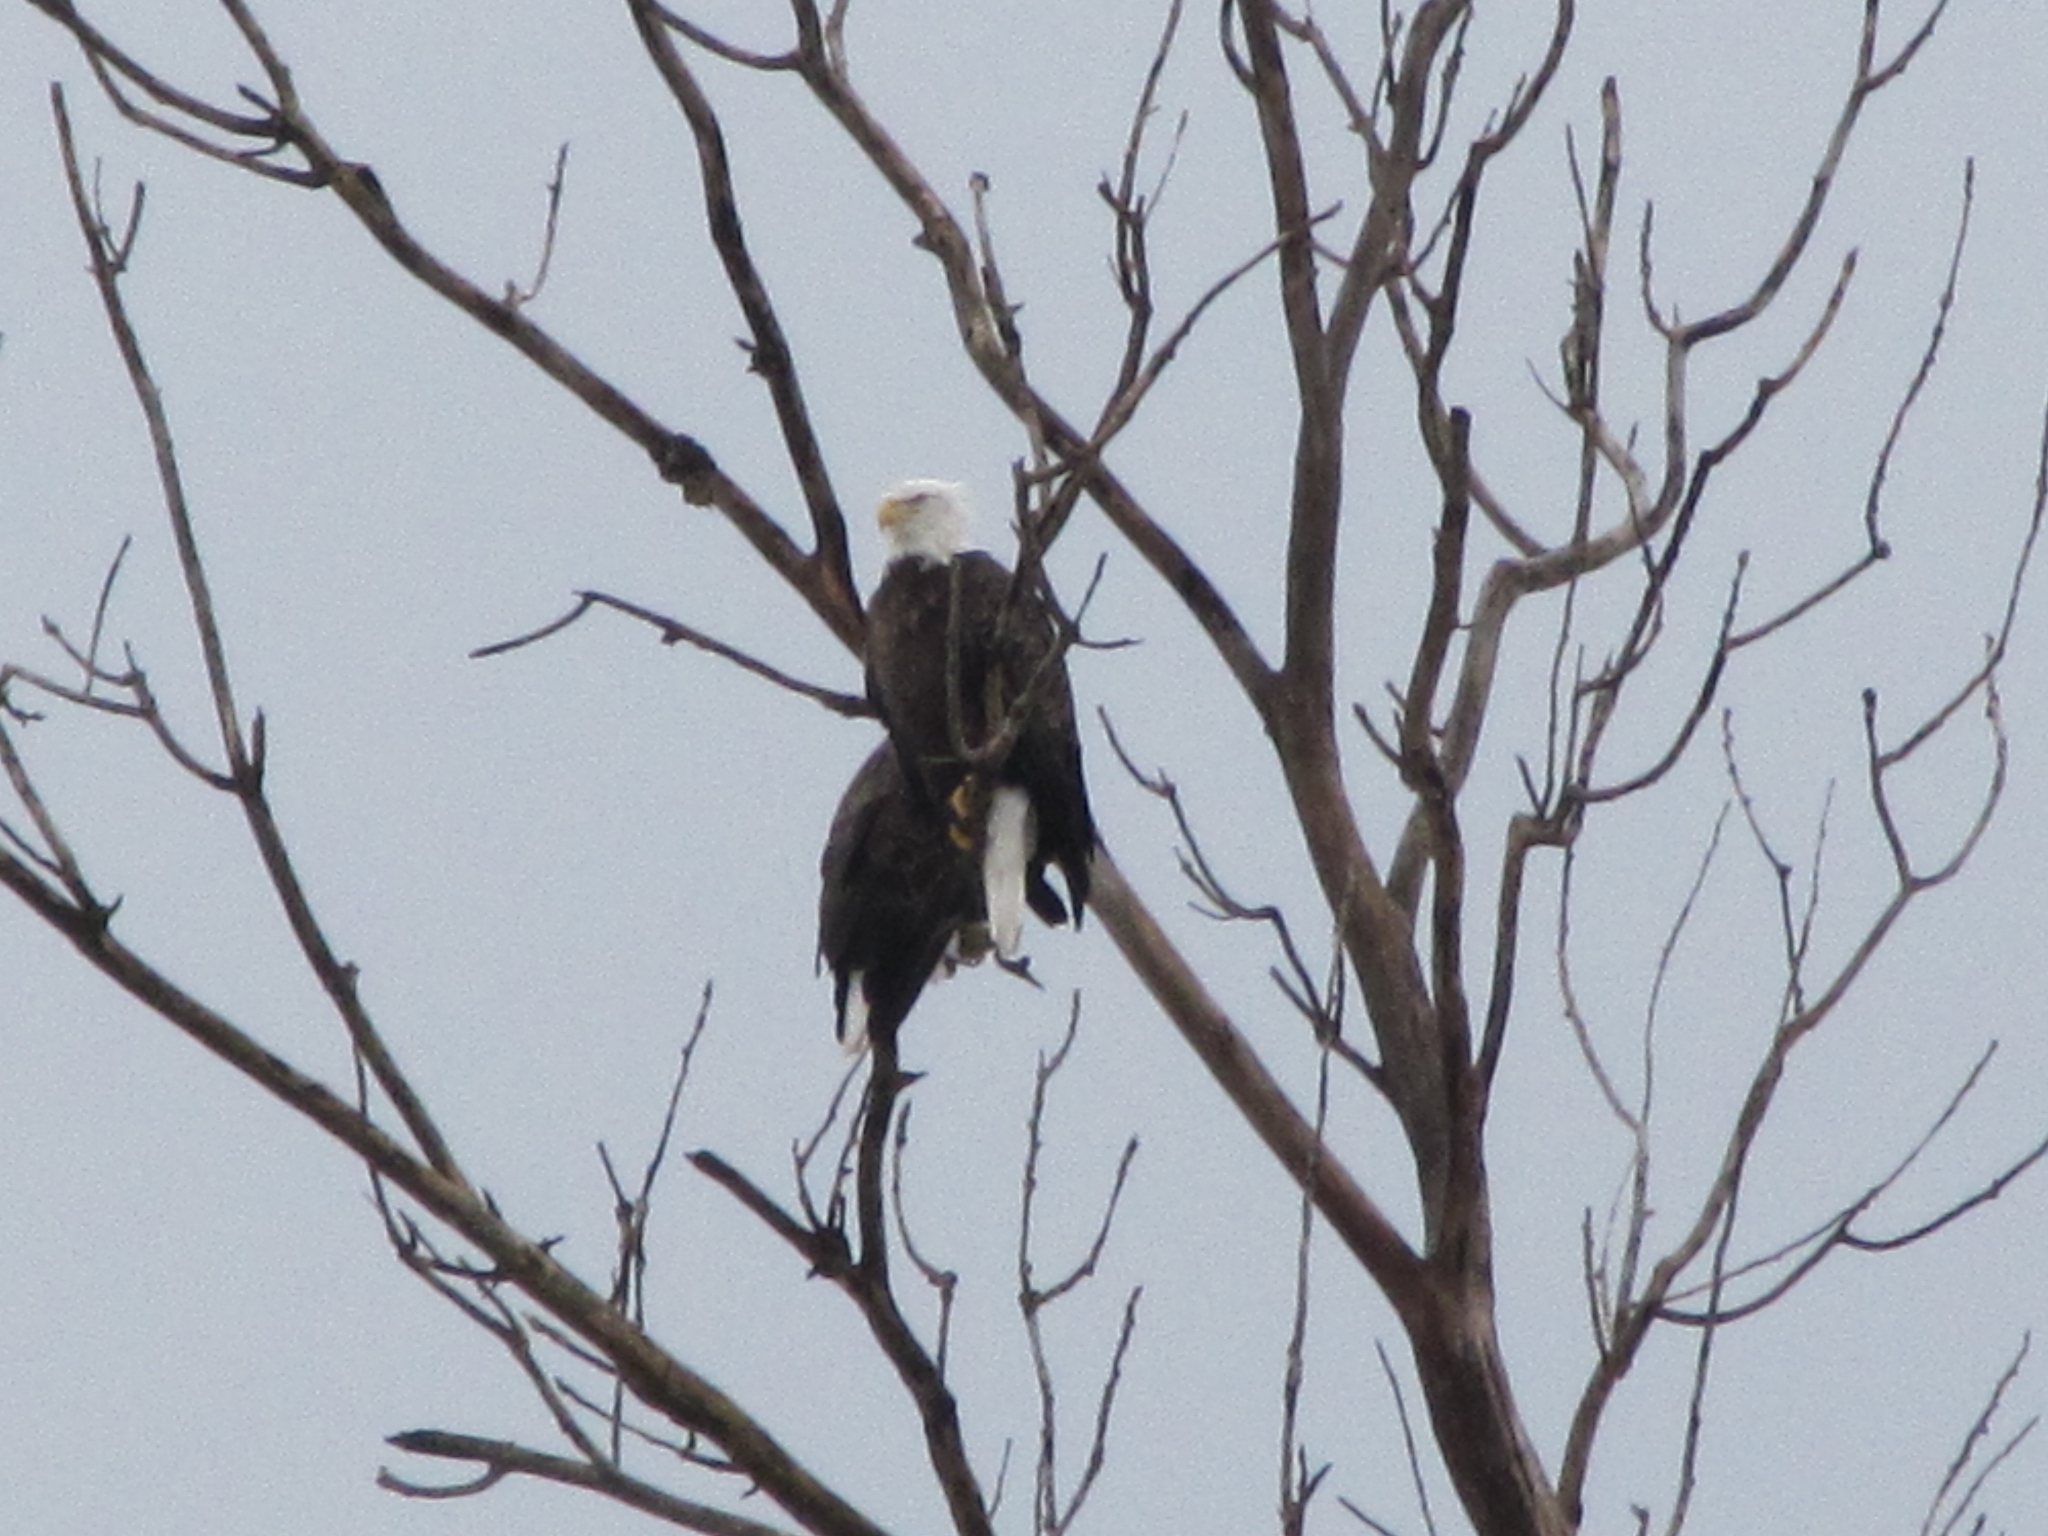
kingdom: Animalia
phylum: Chordata
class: Aves
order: Accipitriformes
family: Accipitridae
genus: Haliaeetus
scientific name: Haliaeetus leucocephalus
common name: Bald eagle
